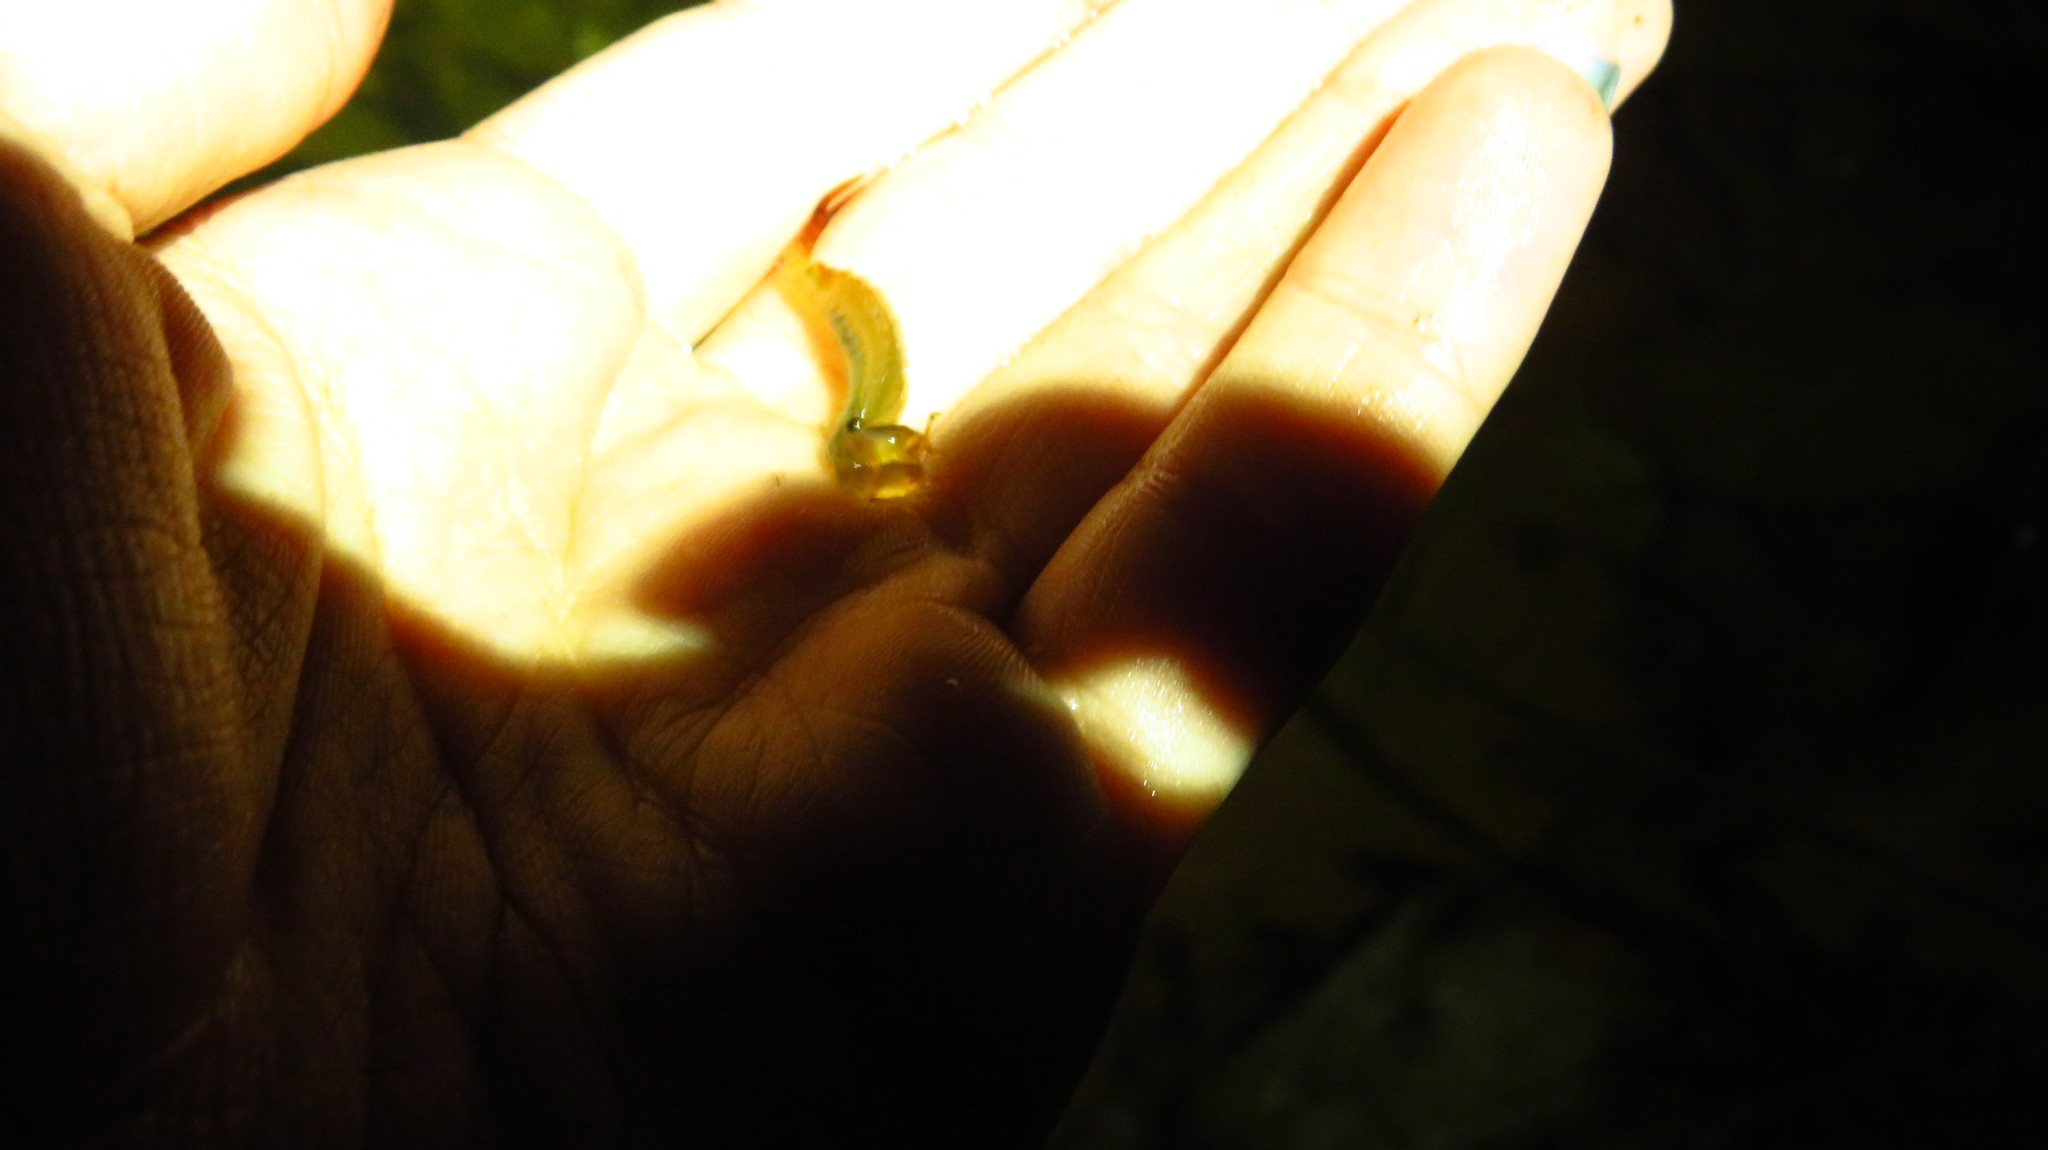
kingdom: Animalia
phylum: Arthropoda
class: Branchiopoda
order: Anostraca
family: Chirocephalidae
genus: Eubranchipus
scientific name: Eubranchipus vernalis
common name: Eastern fairy shrimp
